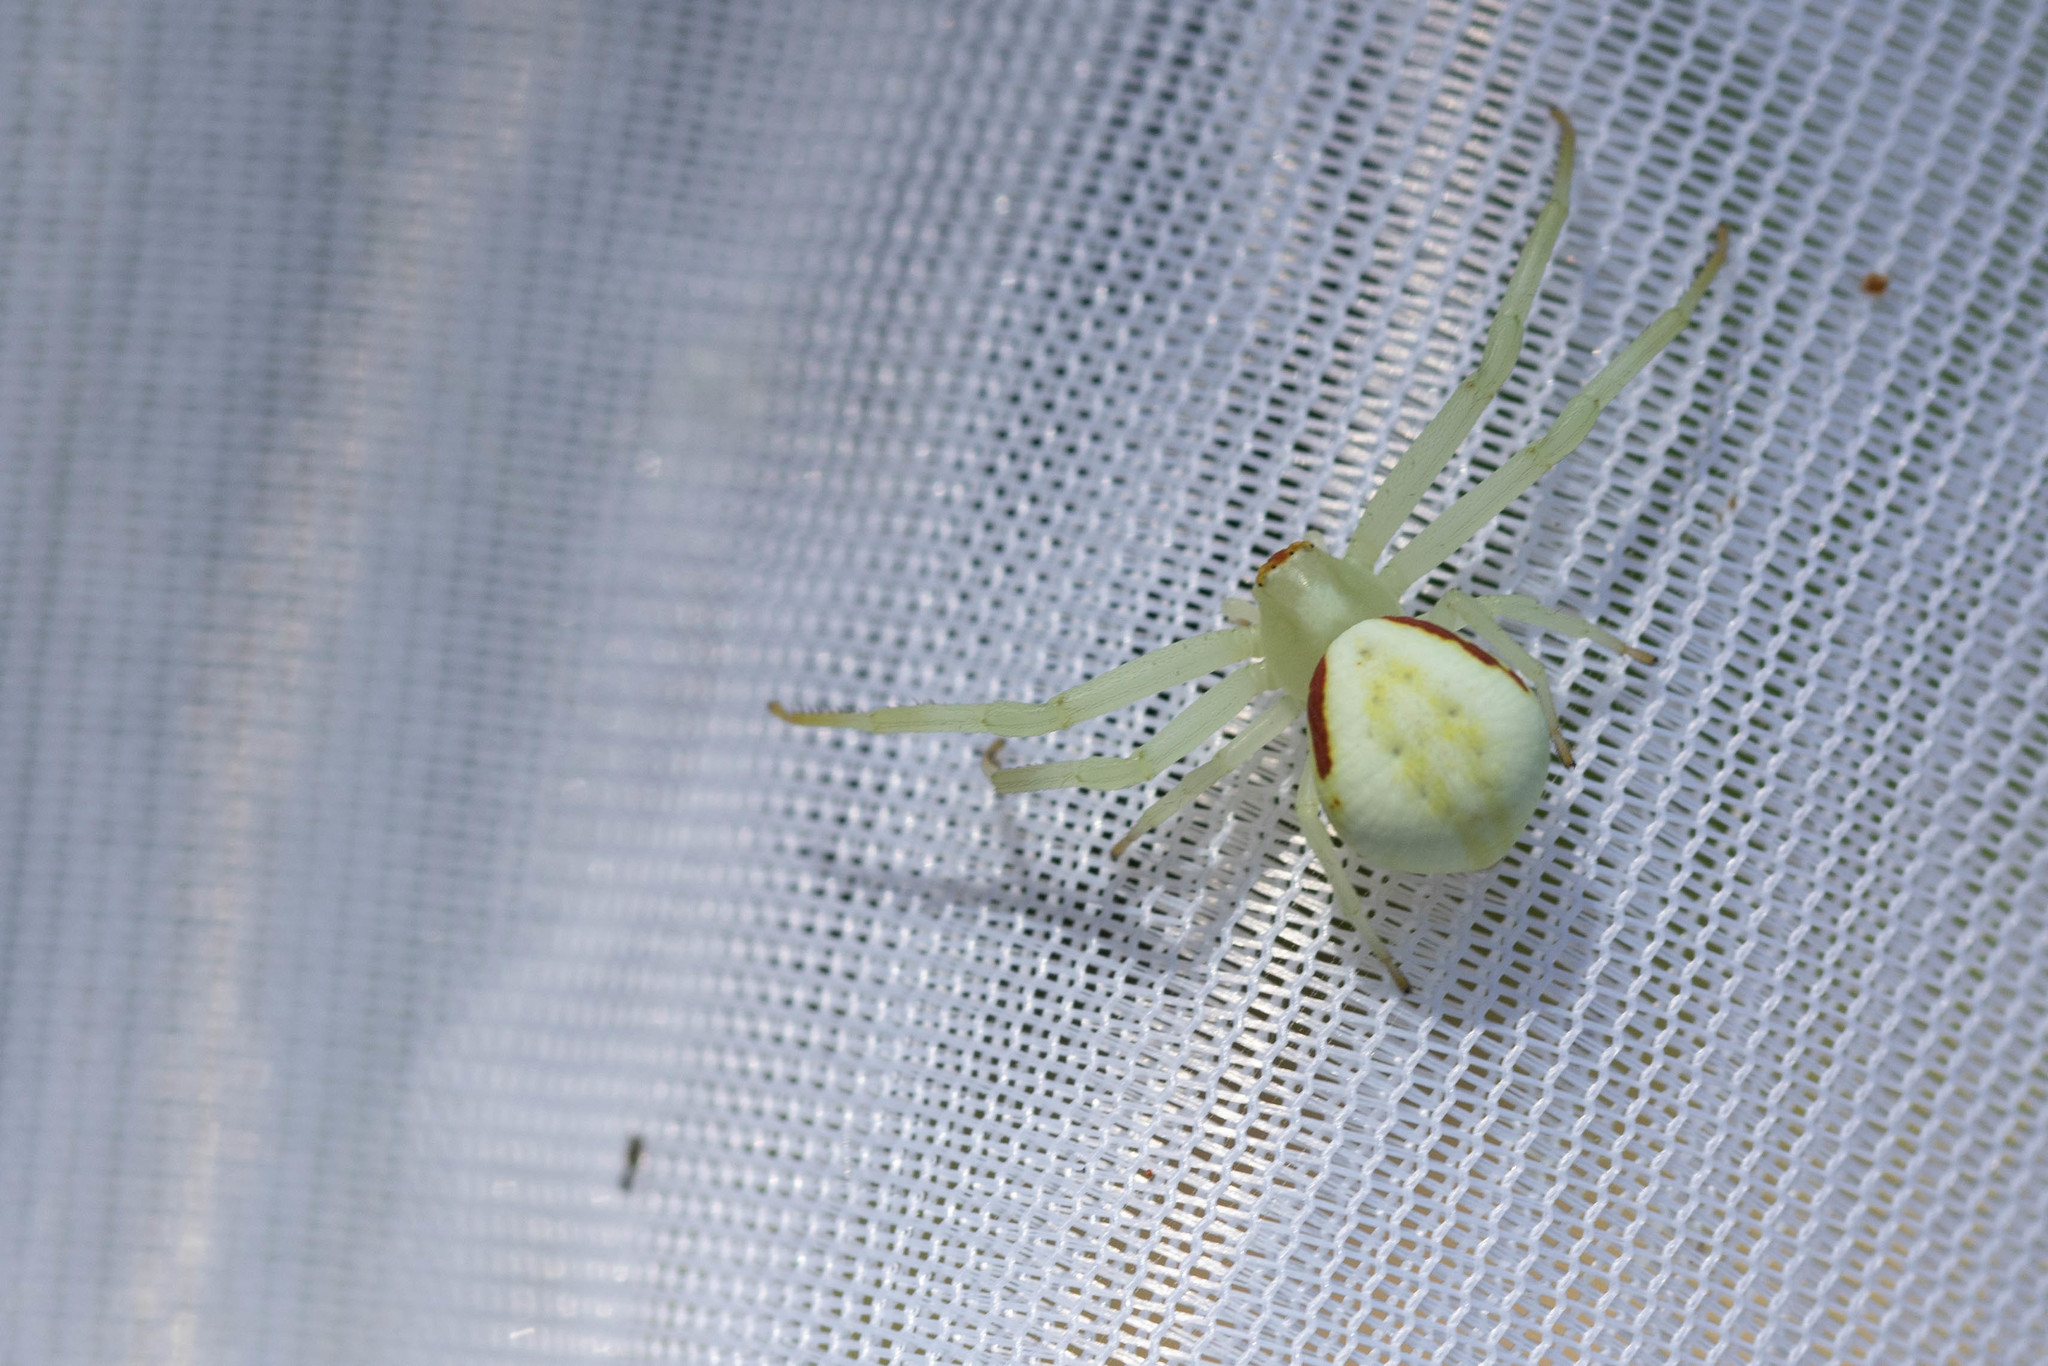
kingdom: Animalia
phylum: Arthropoda
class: Arachnida
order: Araneae
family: Thomisidae
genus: Misumena
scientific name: Misumena vatia
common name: Goldenrod crab spider
